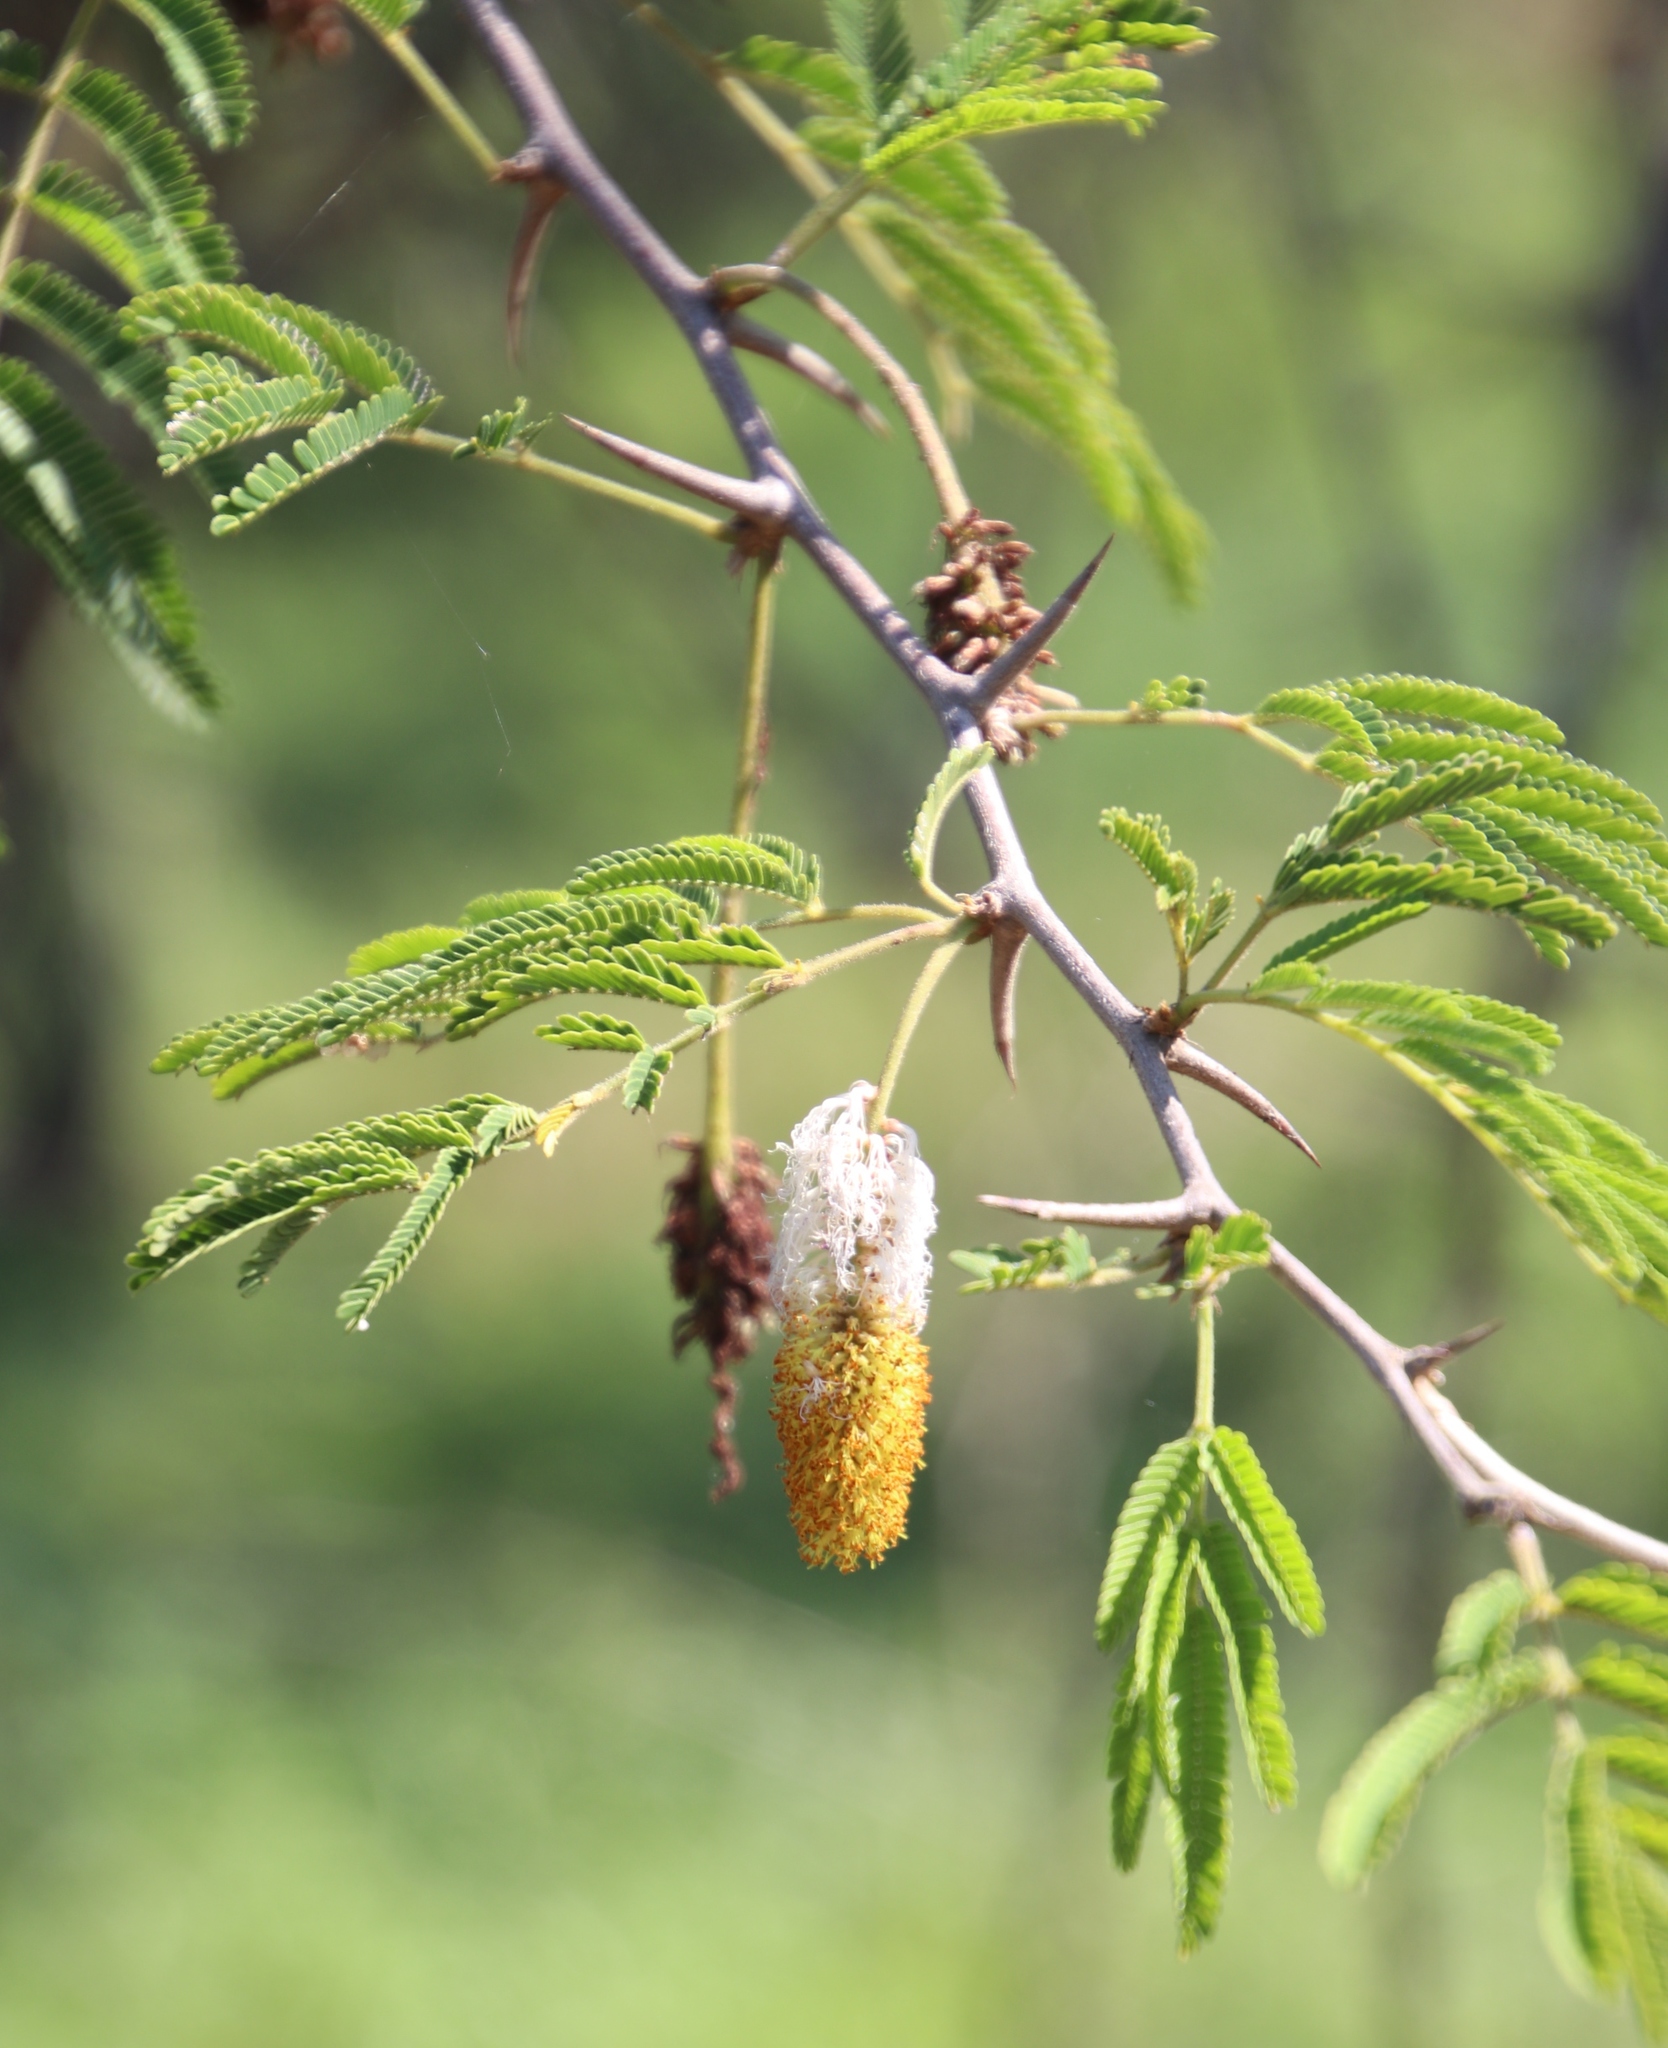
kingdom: Plantae
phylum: Tracheophyta
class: Magnoliopsida
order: Fabales
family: Fabaceae
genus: Dichrostachys
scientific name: Dichrostachys cinerea
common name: Sicklebush
